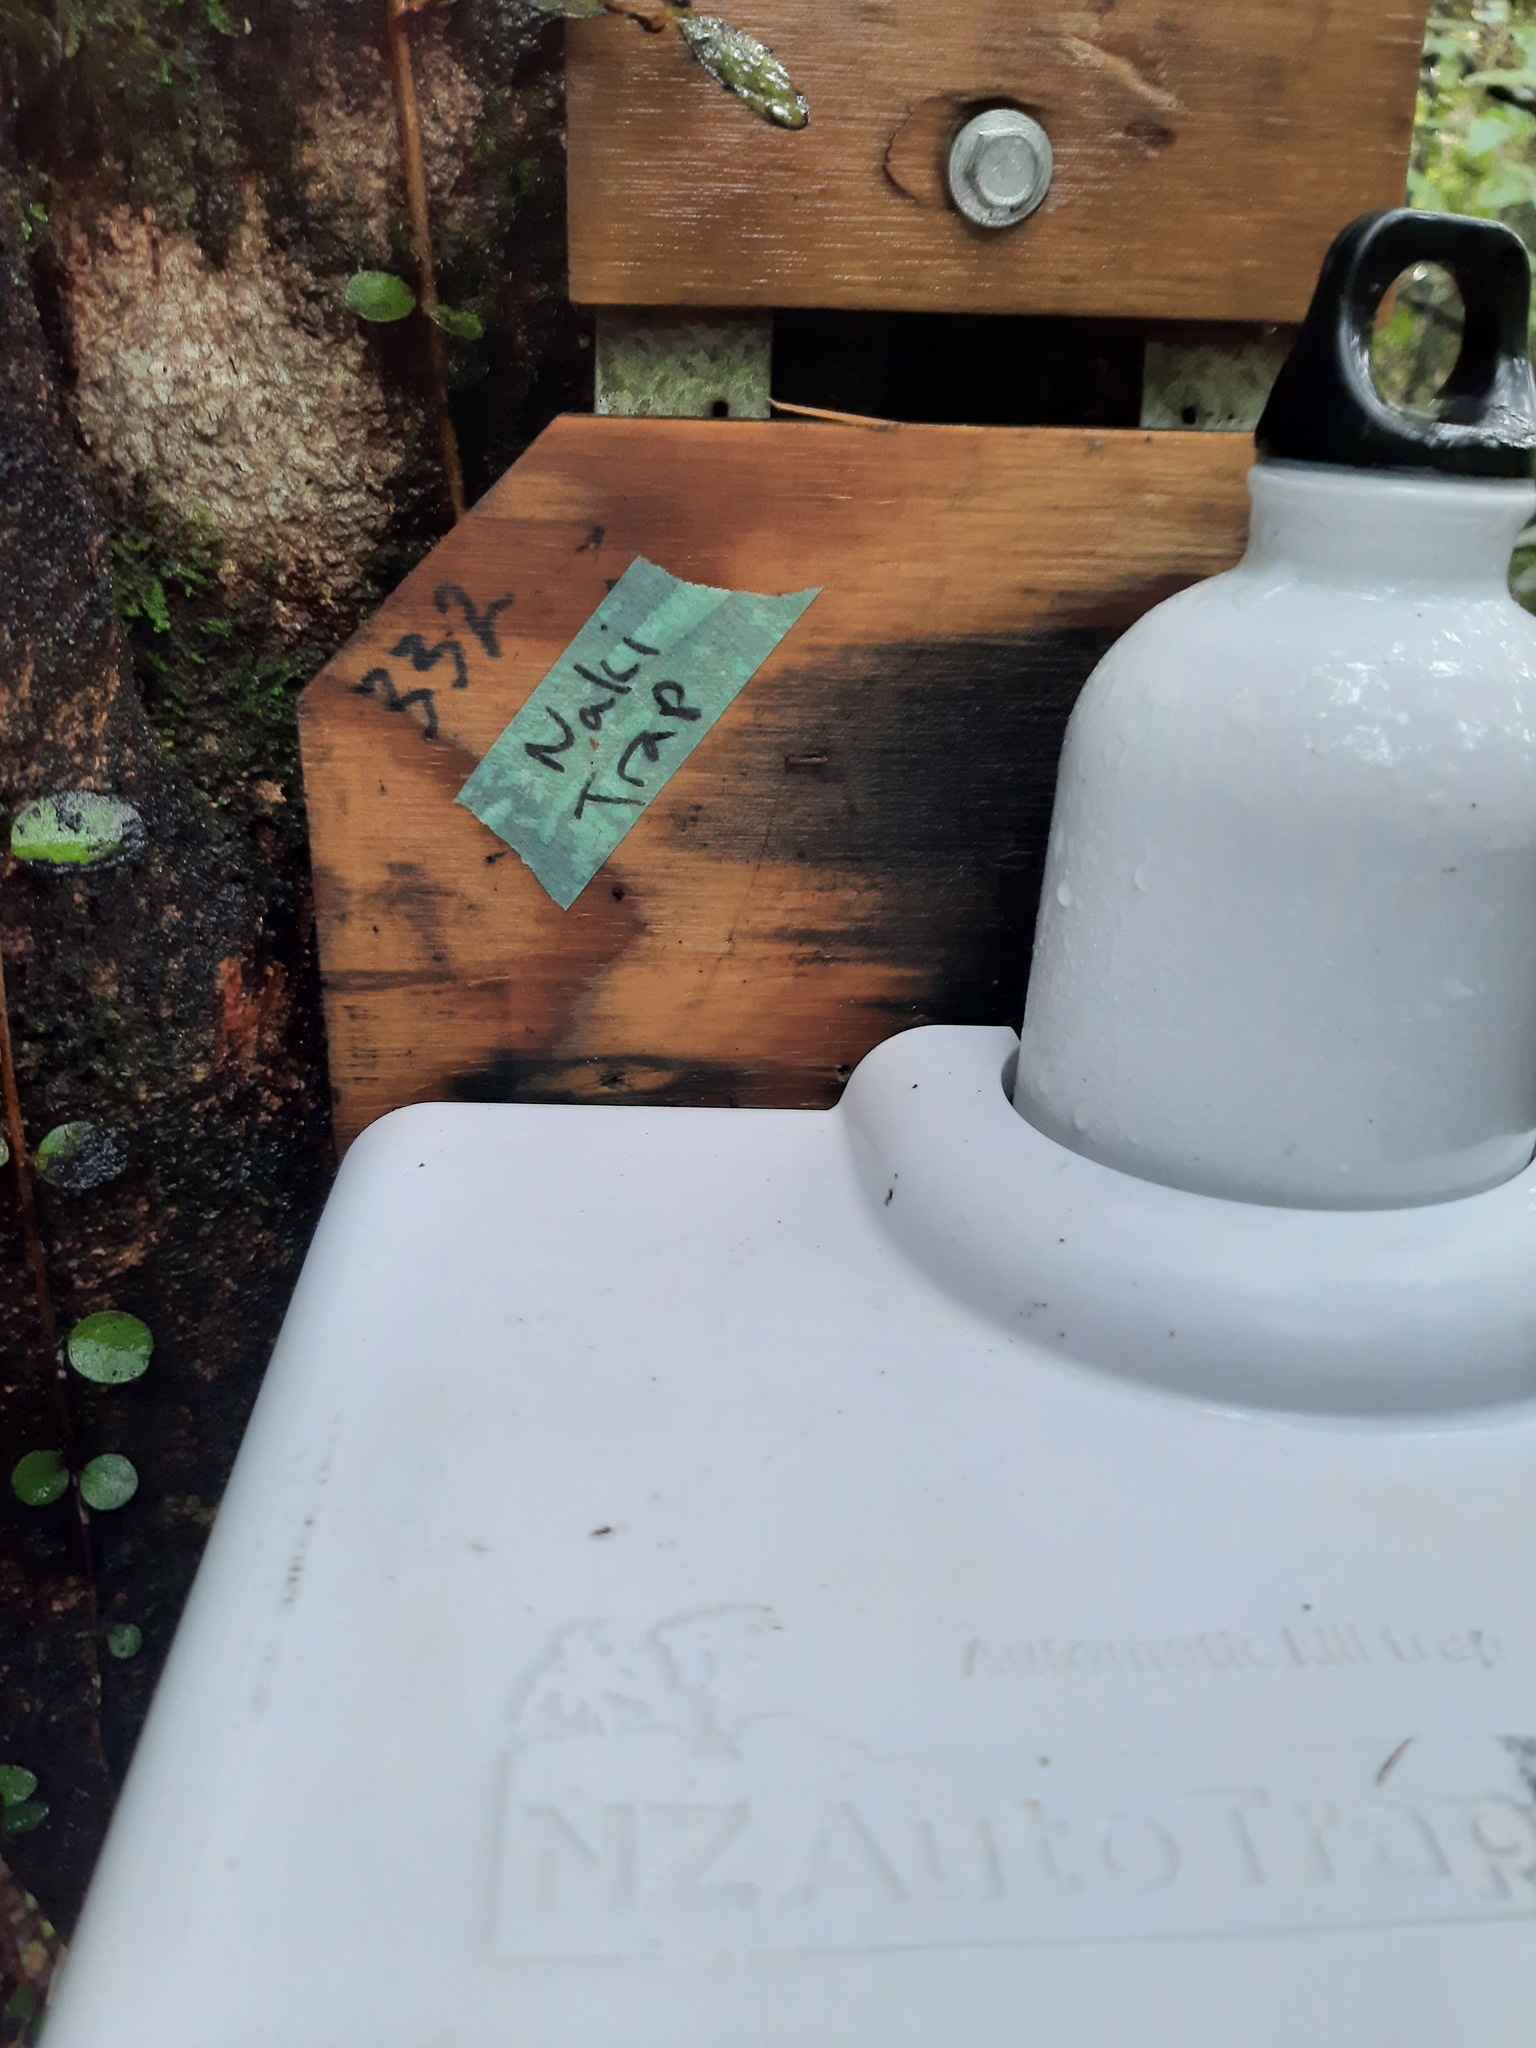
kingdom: Animalia
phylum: Chordata
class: Mammalia
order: Diprotodontia
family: Phalangeridae
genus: Trichosurus
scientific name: Trichosurus vulpecula
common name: Common brushtail
